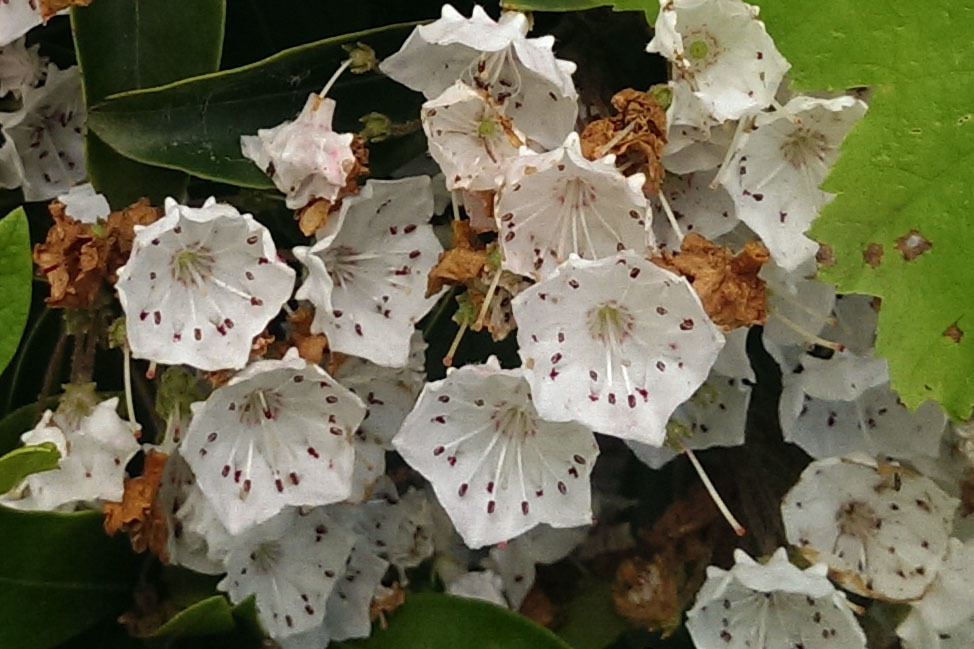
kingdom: Plantae
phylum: Tracheophyta
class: Magnoliopsida
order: Ericales
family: Ericaceae
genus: Kalmia
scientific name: Kalmia latifolia
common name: Mountain-laurel
